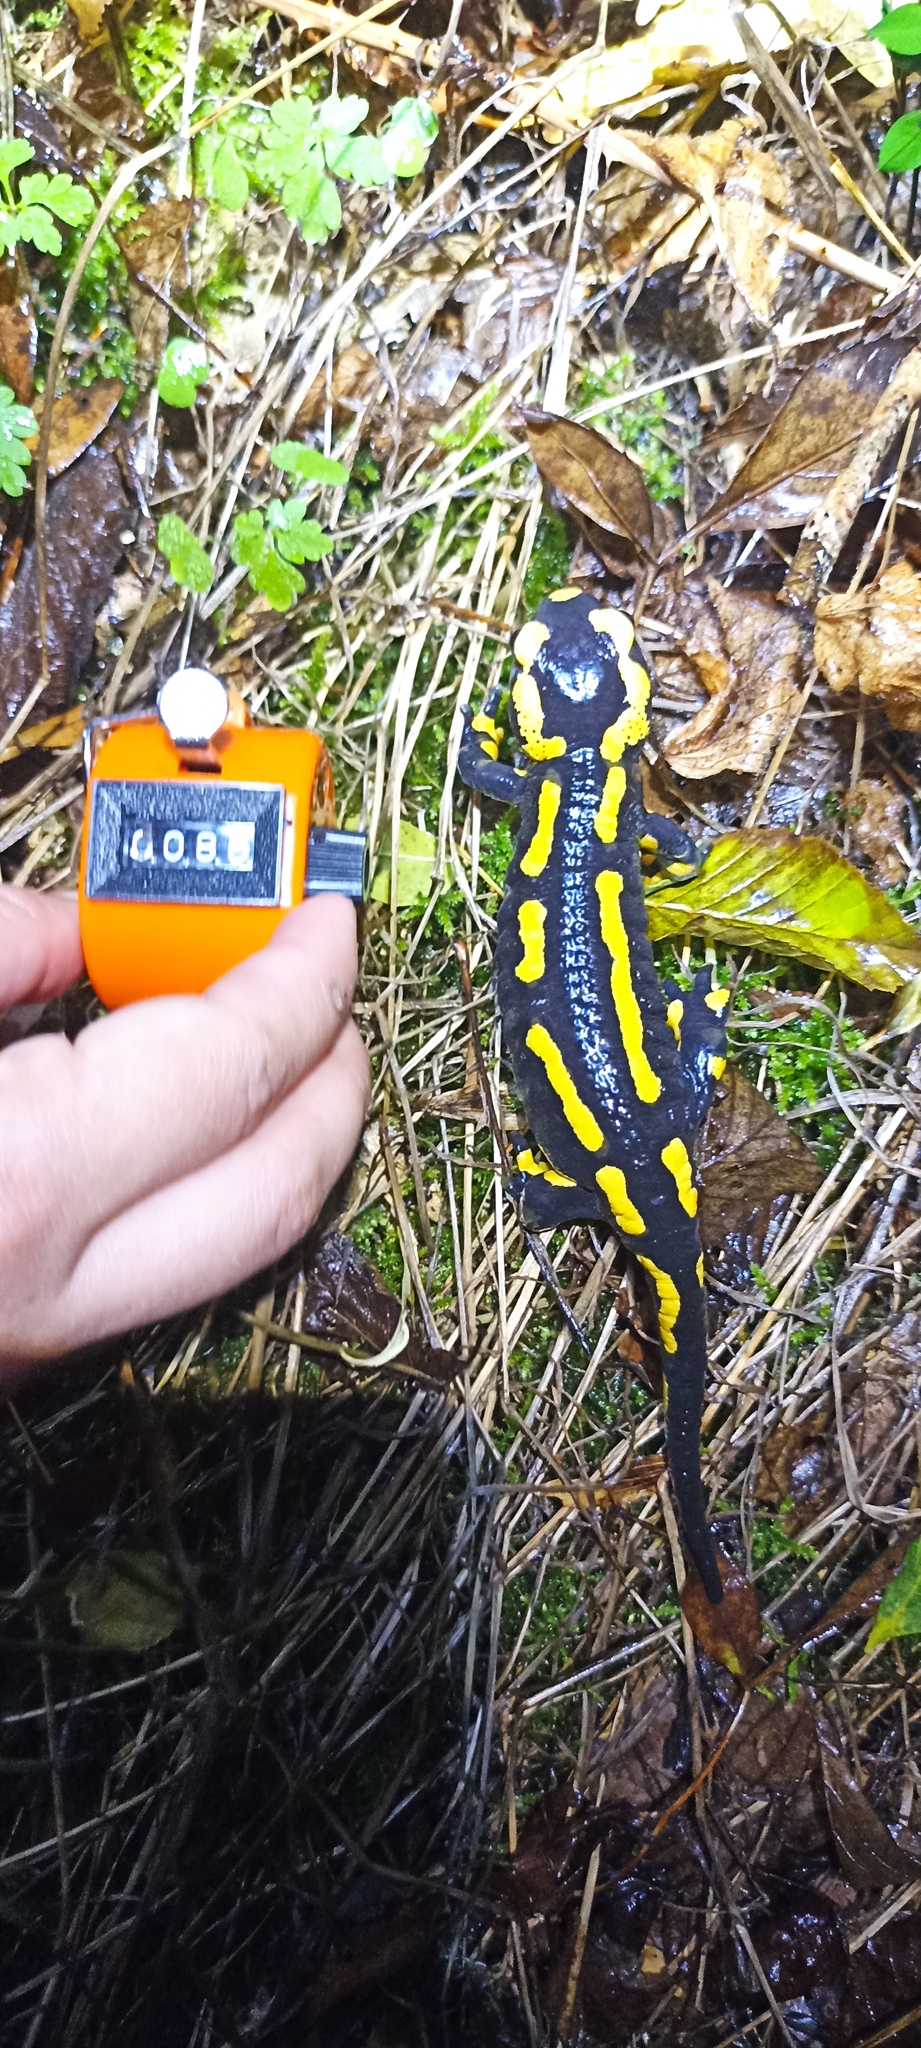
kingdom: Animalia
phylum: Chordata
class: Amphibia
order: Caudata
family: Salamandridae
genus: Salamandra
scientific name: Salamandra salamandra
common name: Fire salamander
